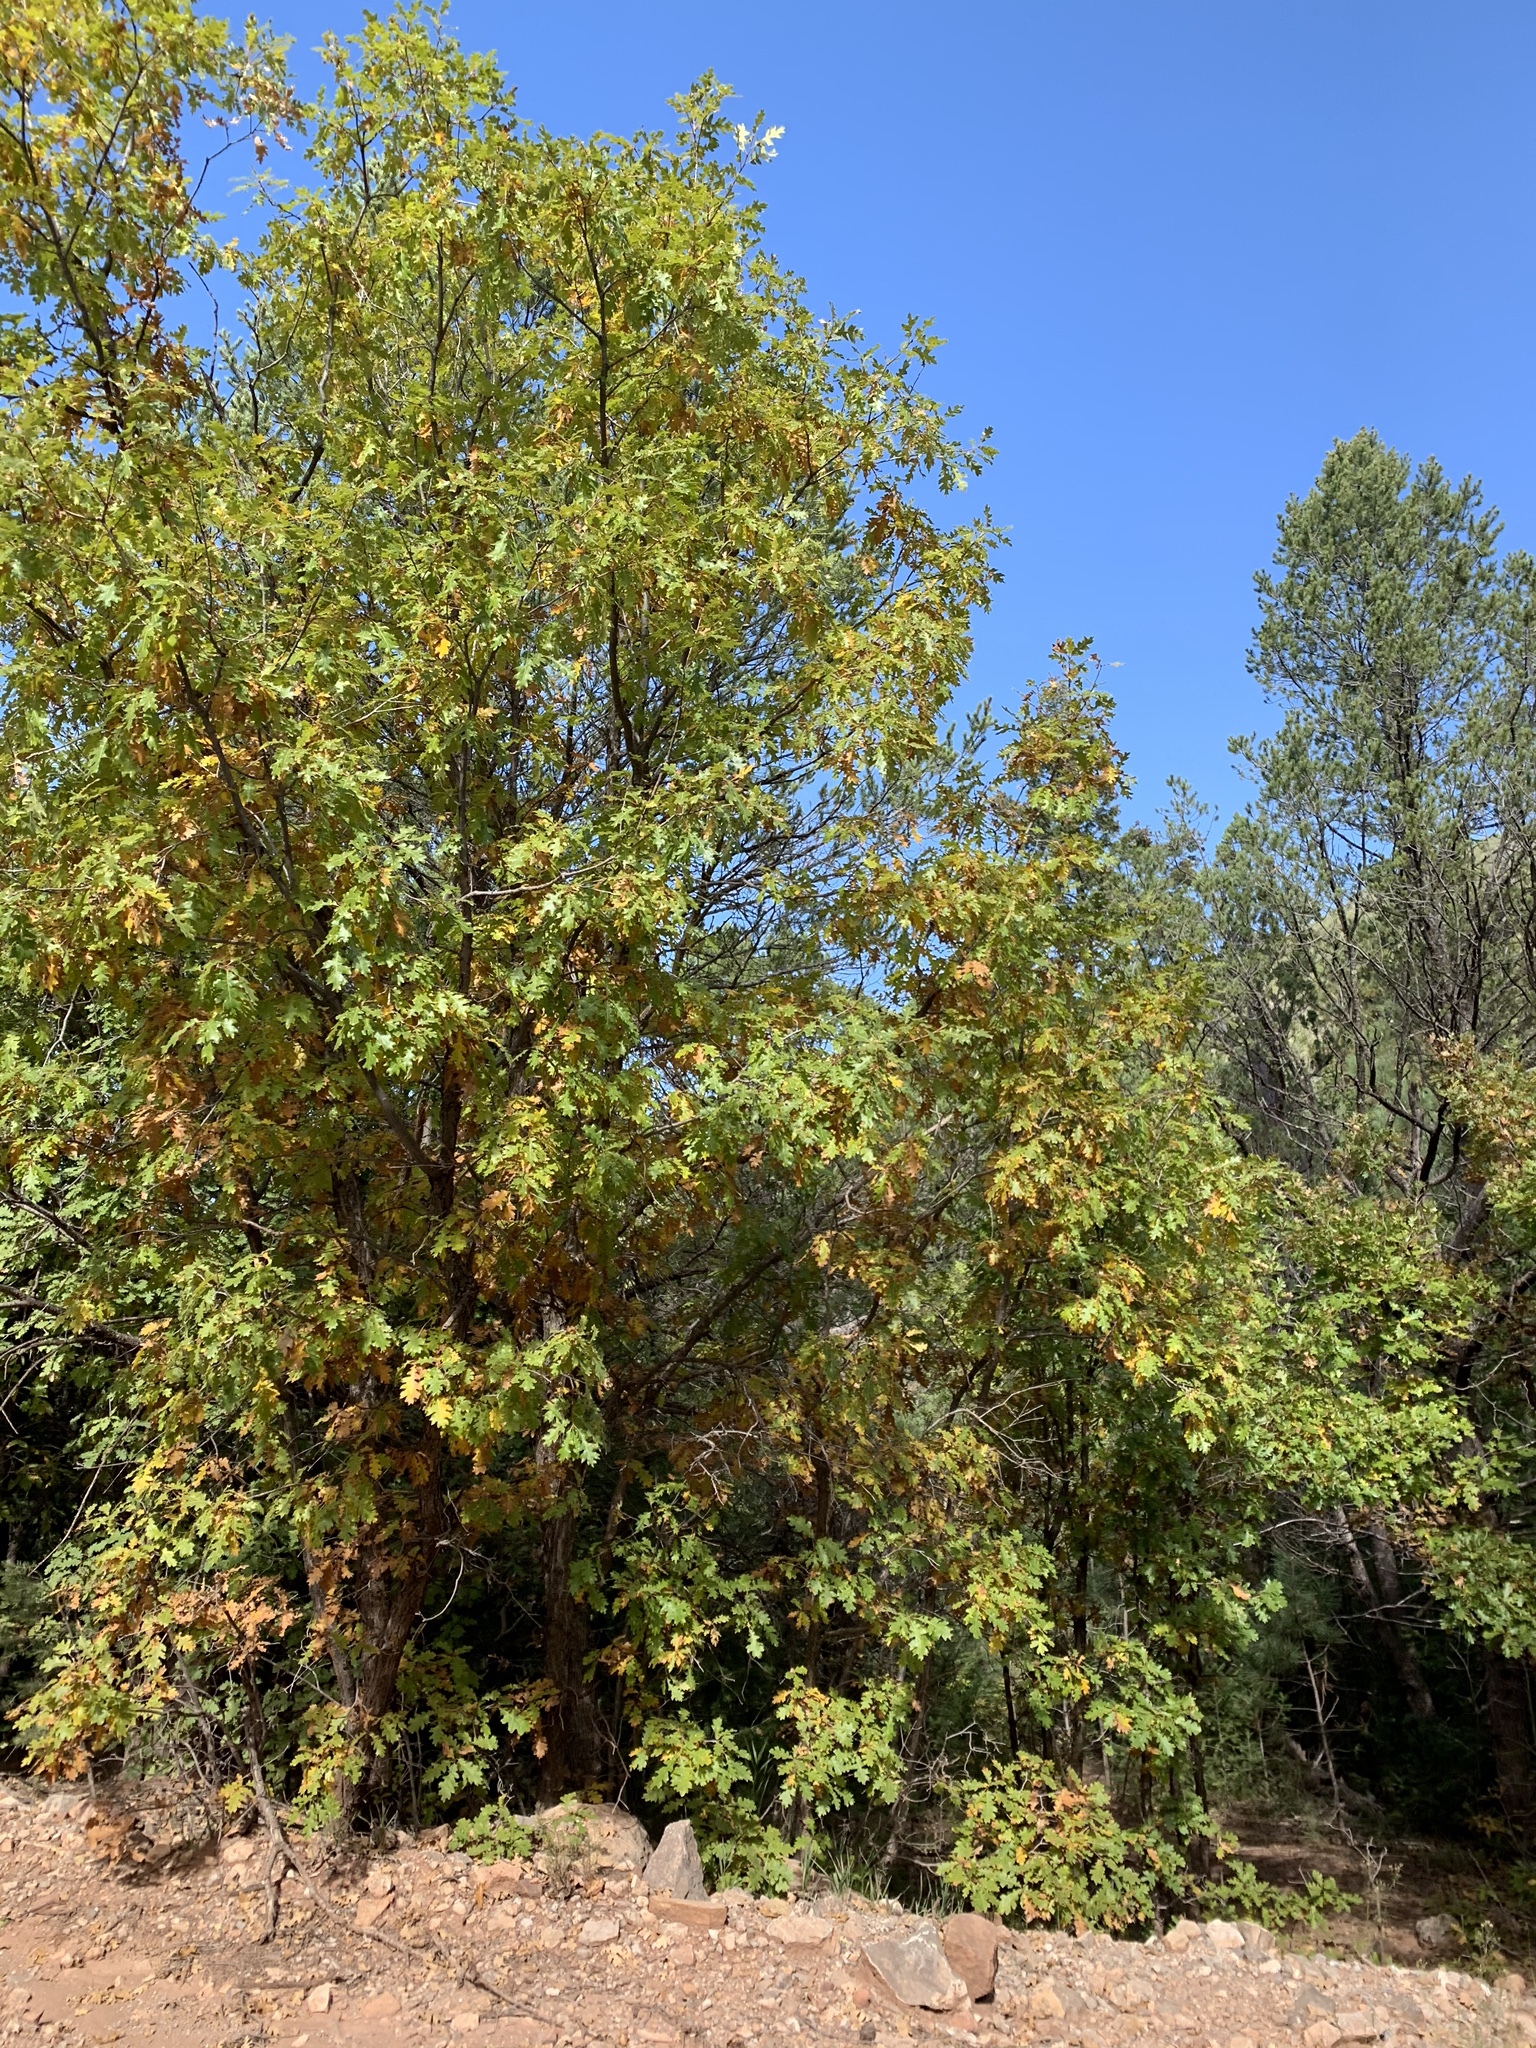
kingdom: Plantae
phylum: Tracheophyta
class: Magnoliopsida
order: Fagales
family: Fagaceae
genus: Quercus
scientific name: Quercus gambelii
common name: Gambel oak
